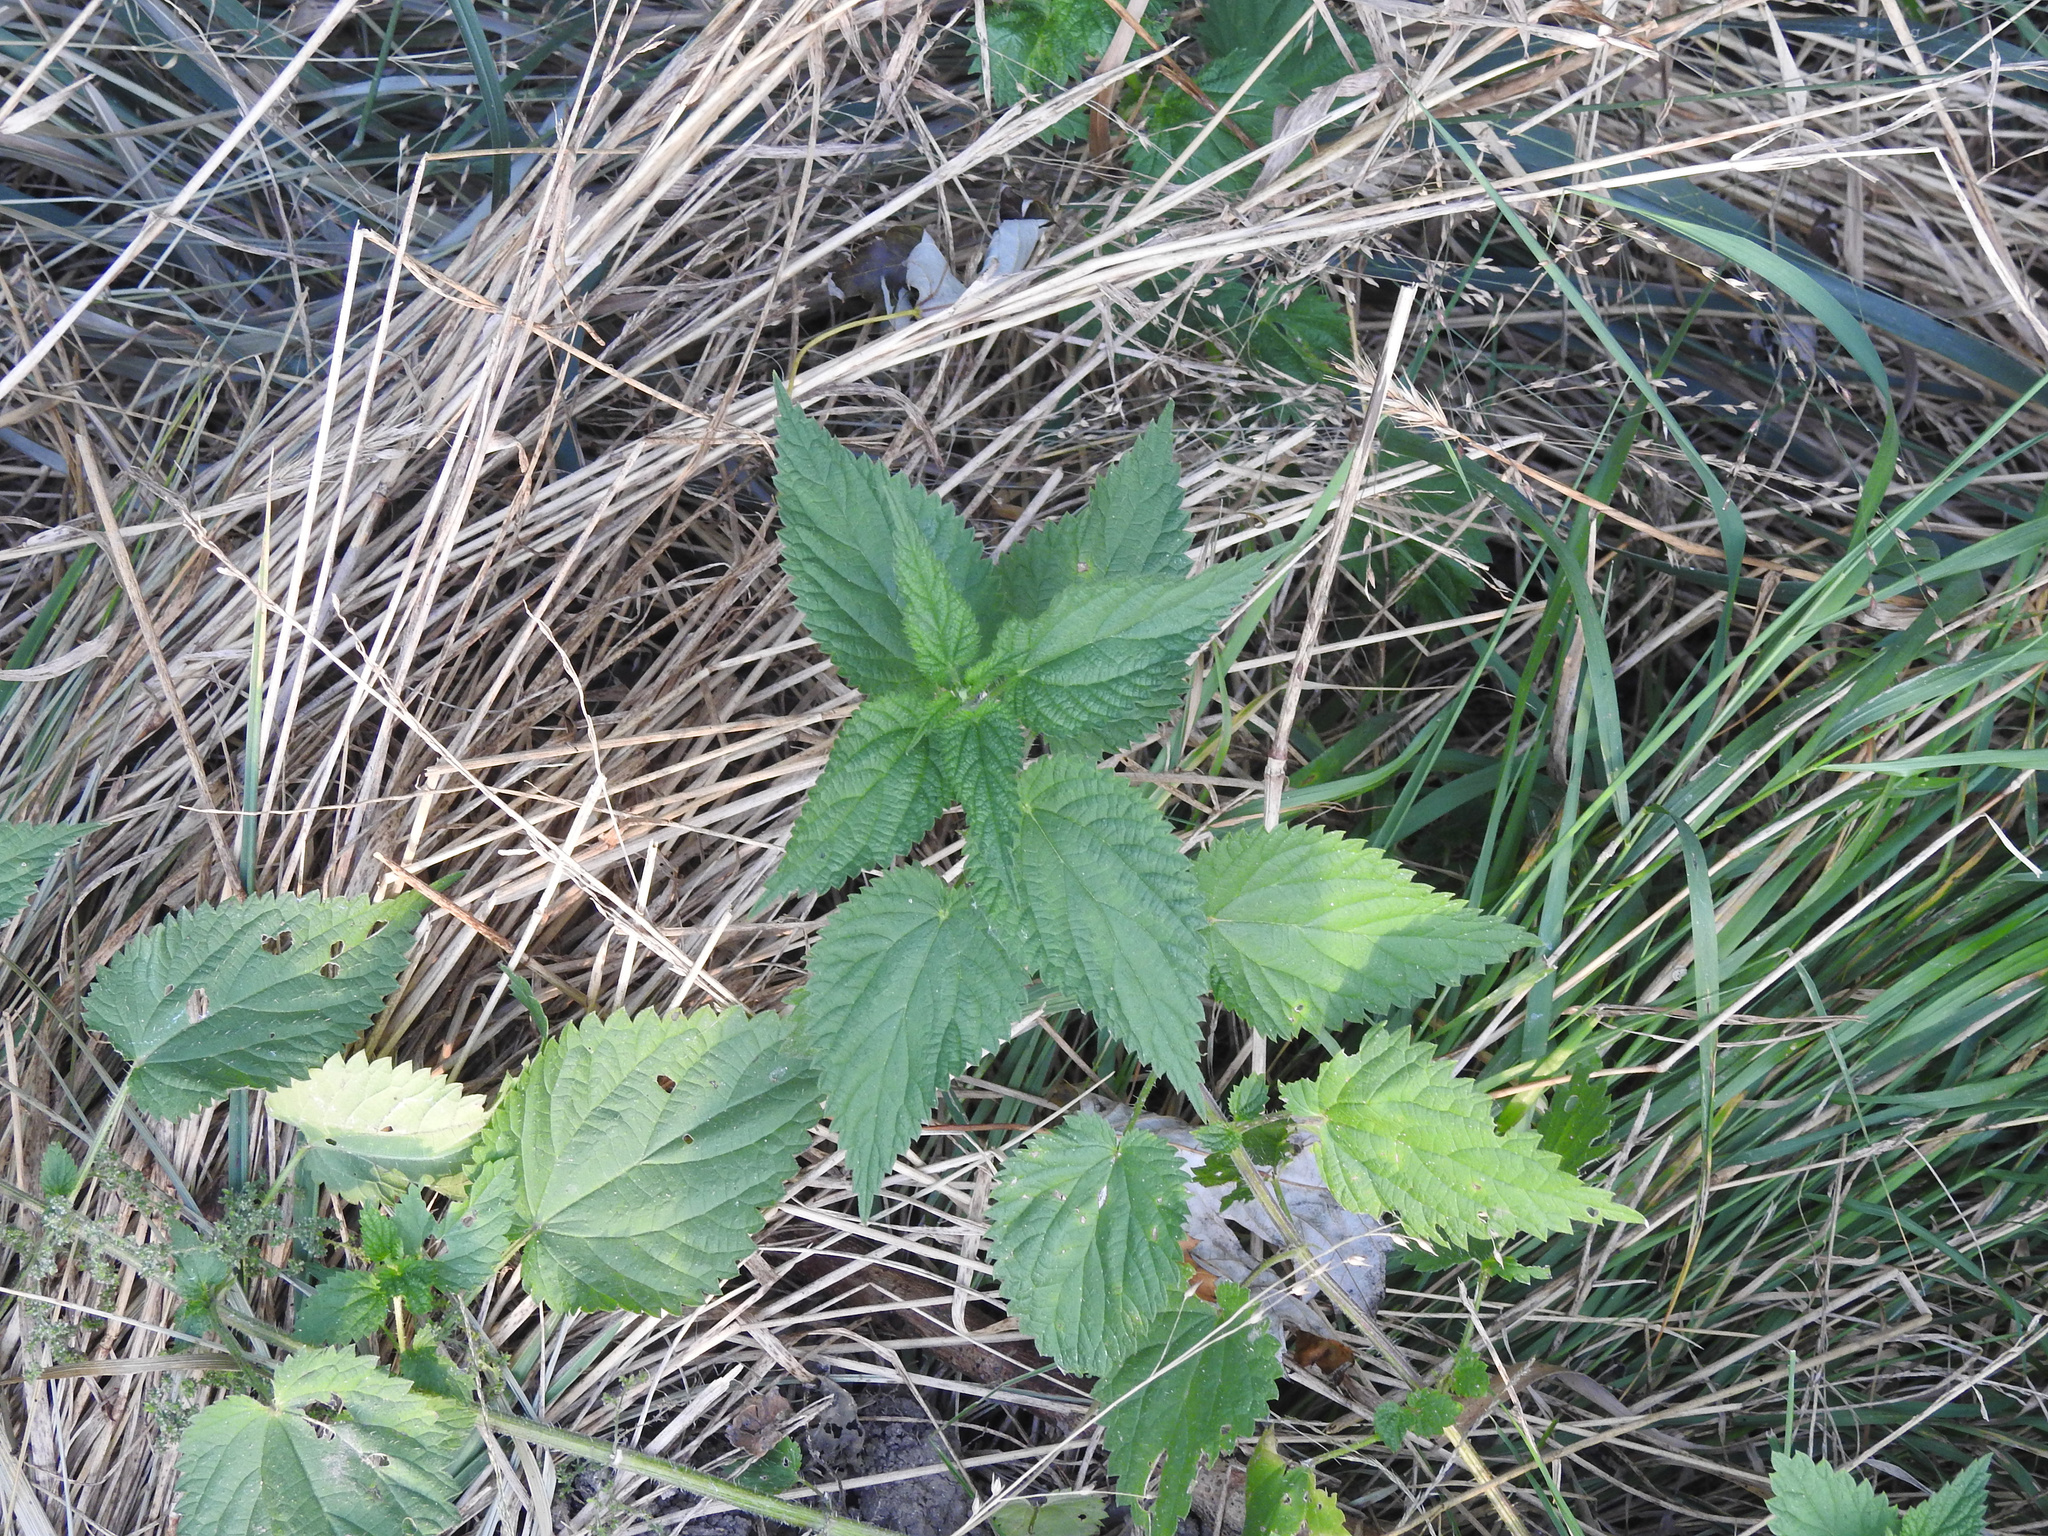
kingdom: Plantae
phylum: Tracheophyta
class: Magnoliopsida
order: Rosales
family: Urticaceae
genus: Urtica
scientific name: Urtica dioica
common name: Common nettle
